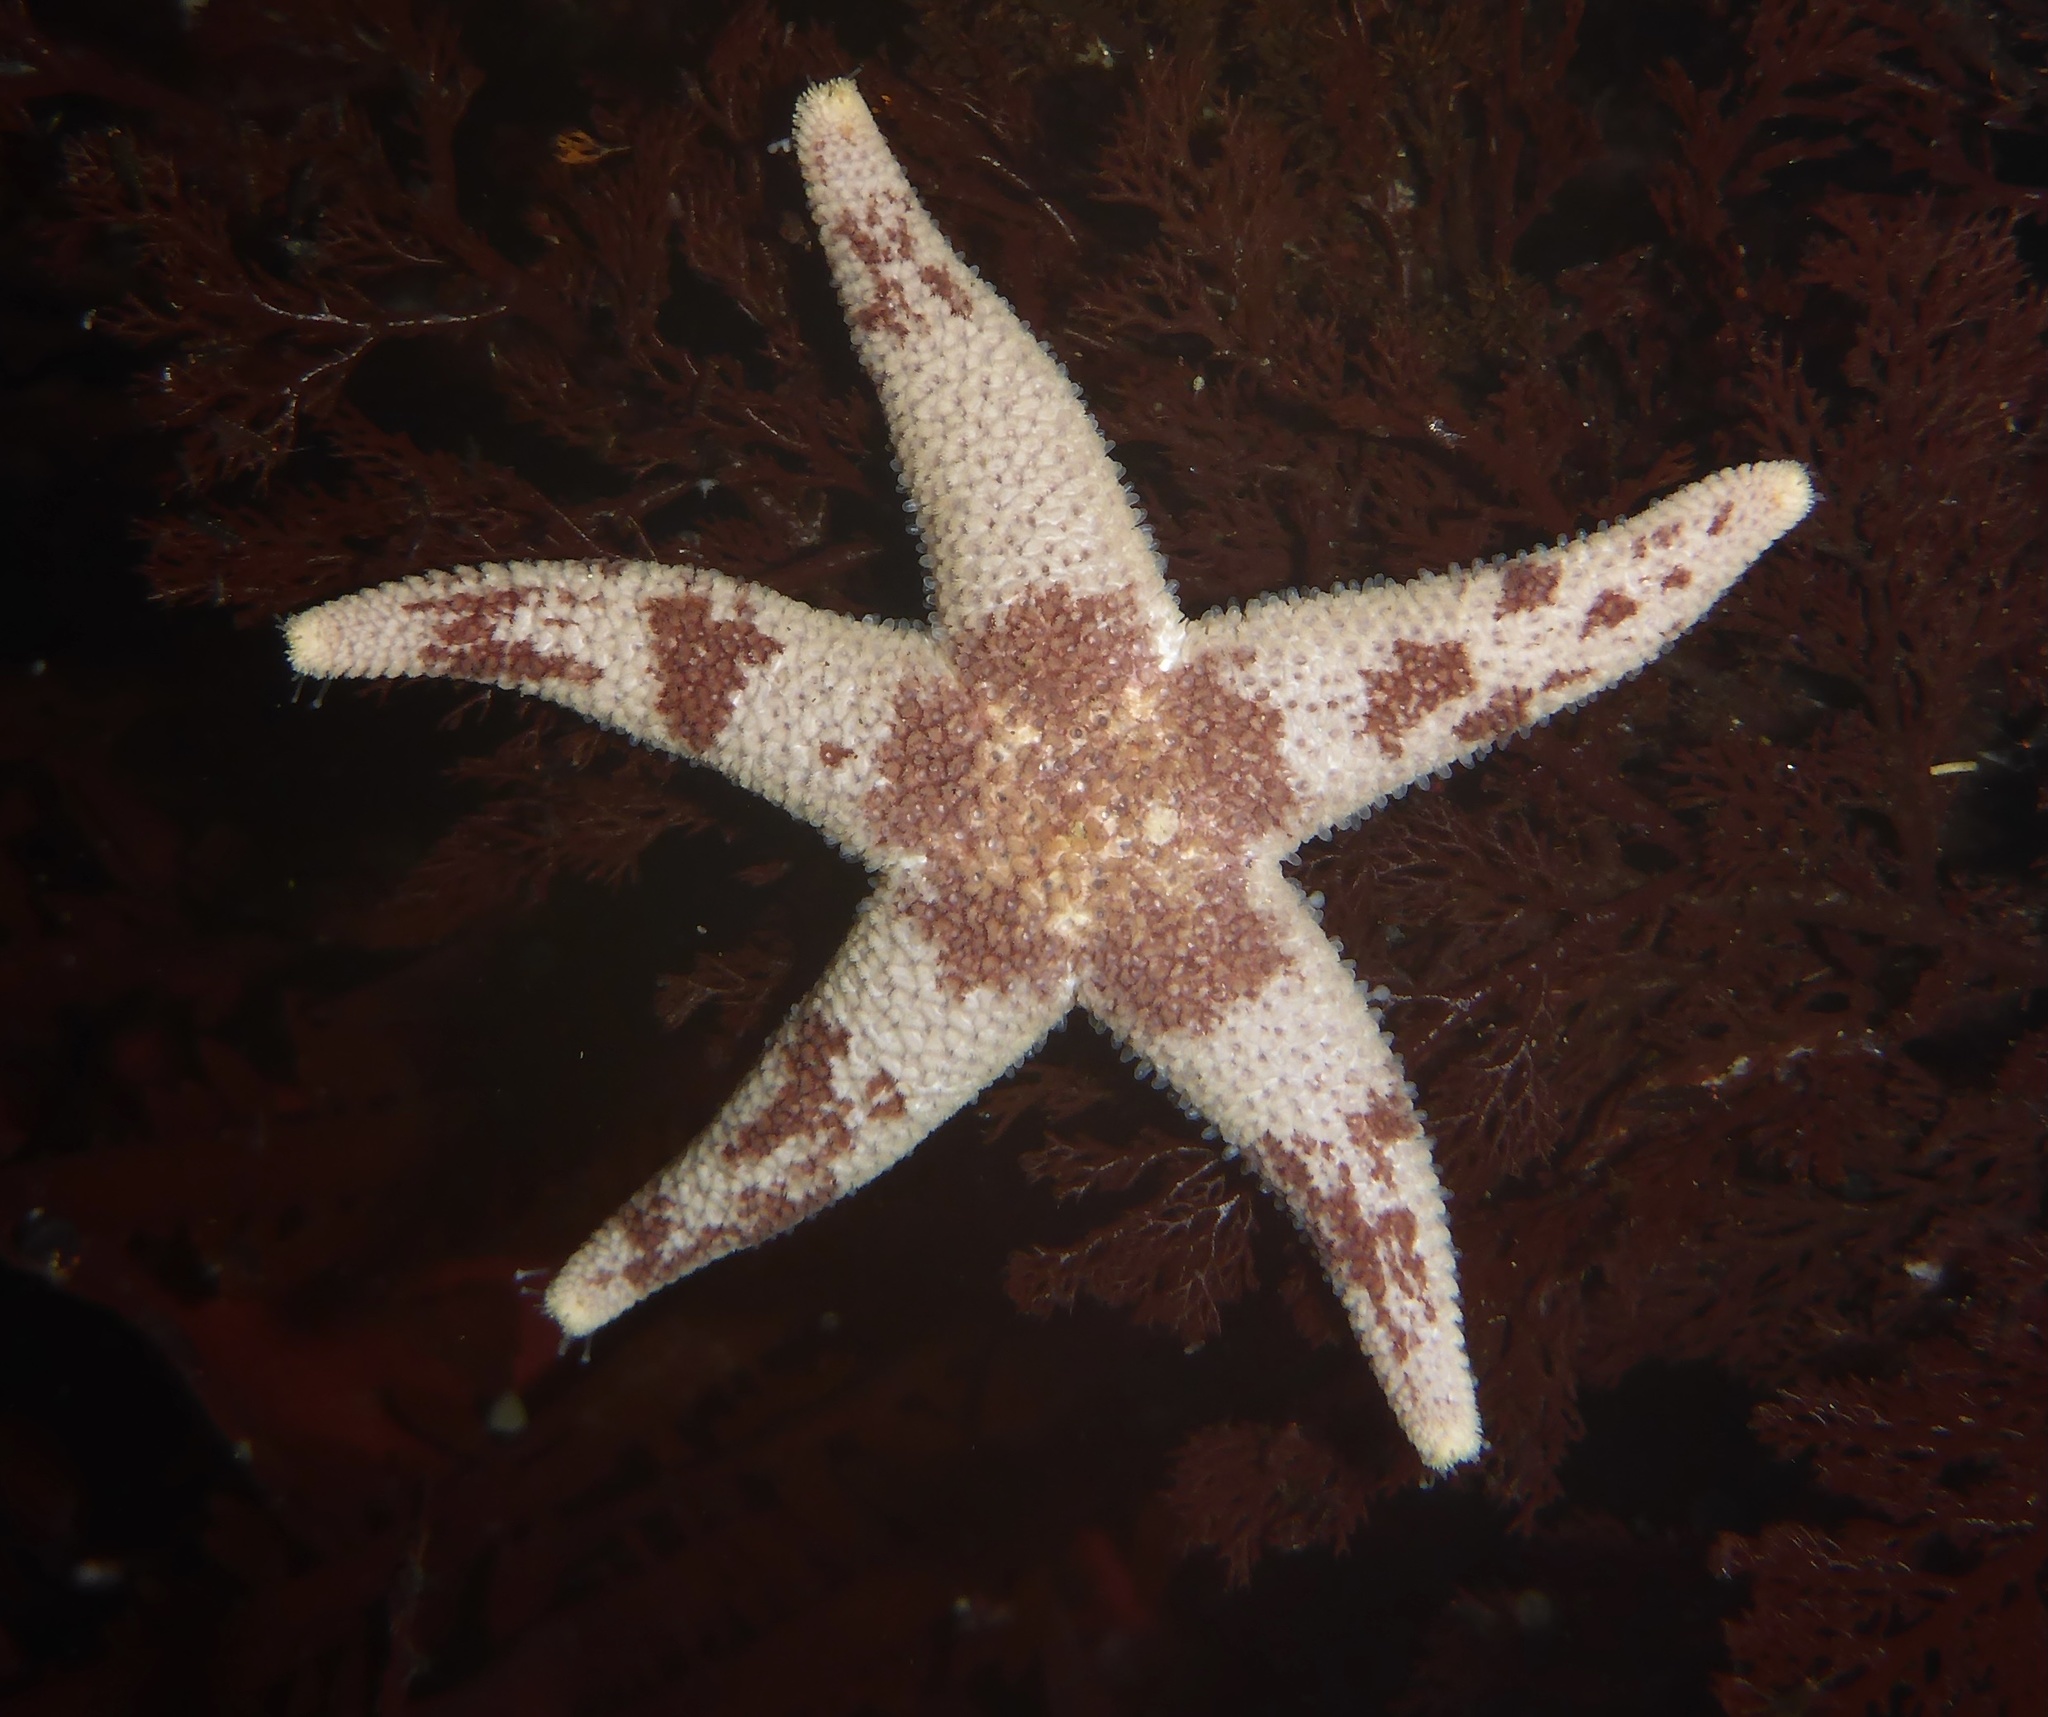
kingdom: Animalia
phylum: Echinodermata
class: Asteroidea
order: Spinulosida
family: Echinasteridae
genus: Henricia
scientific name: Henricia pumila
